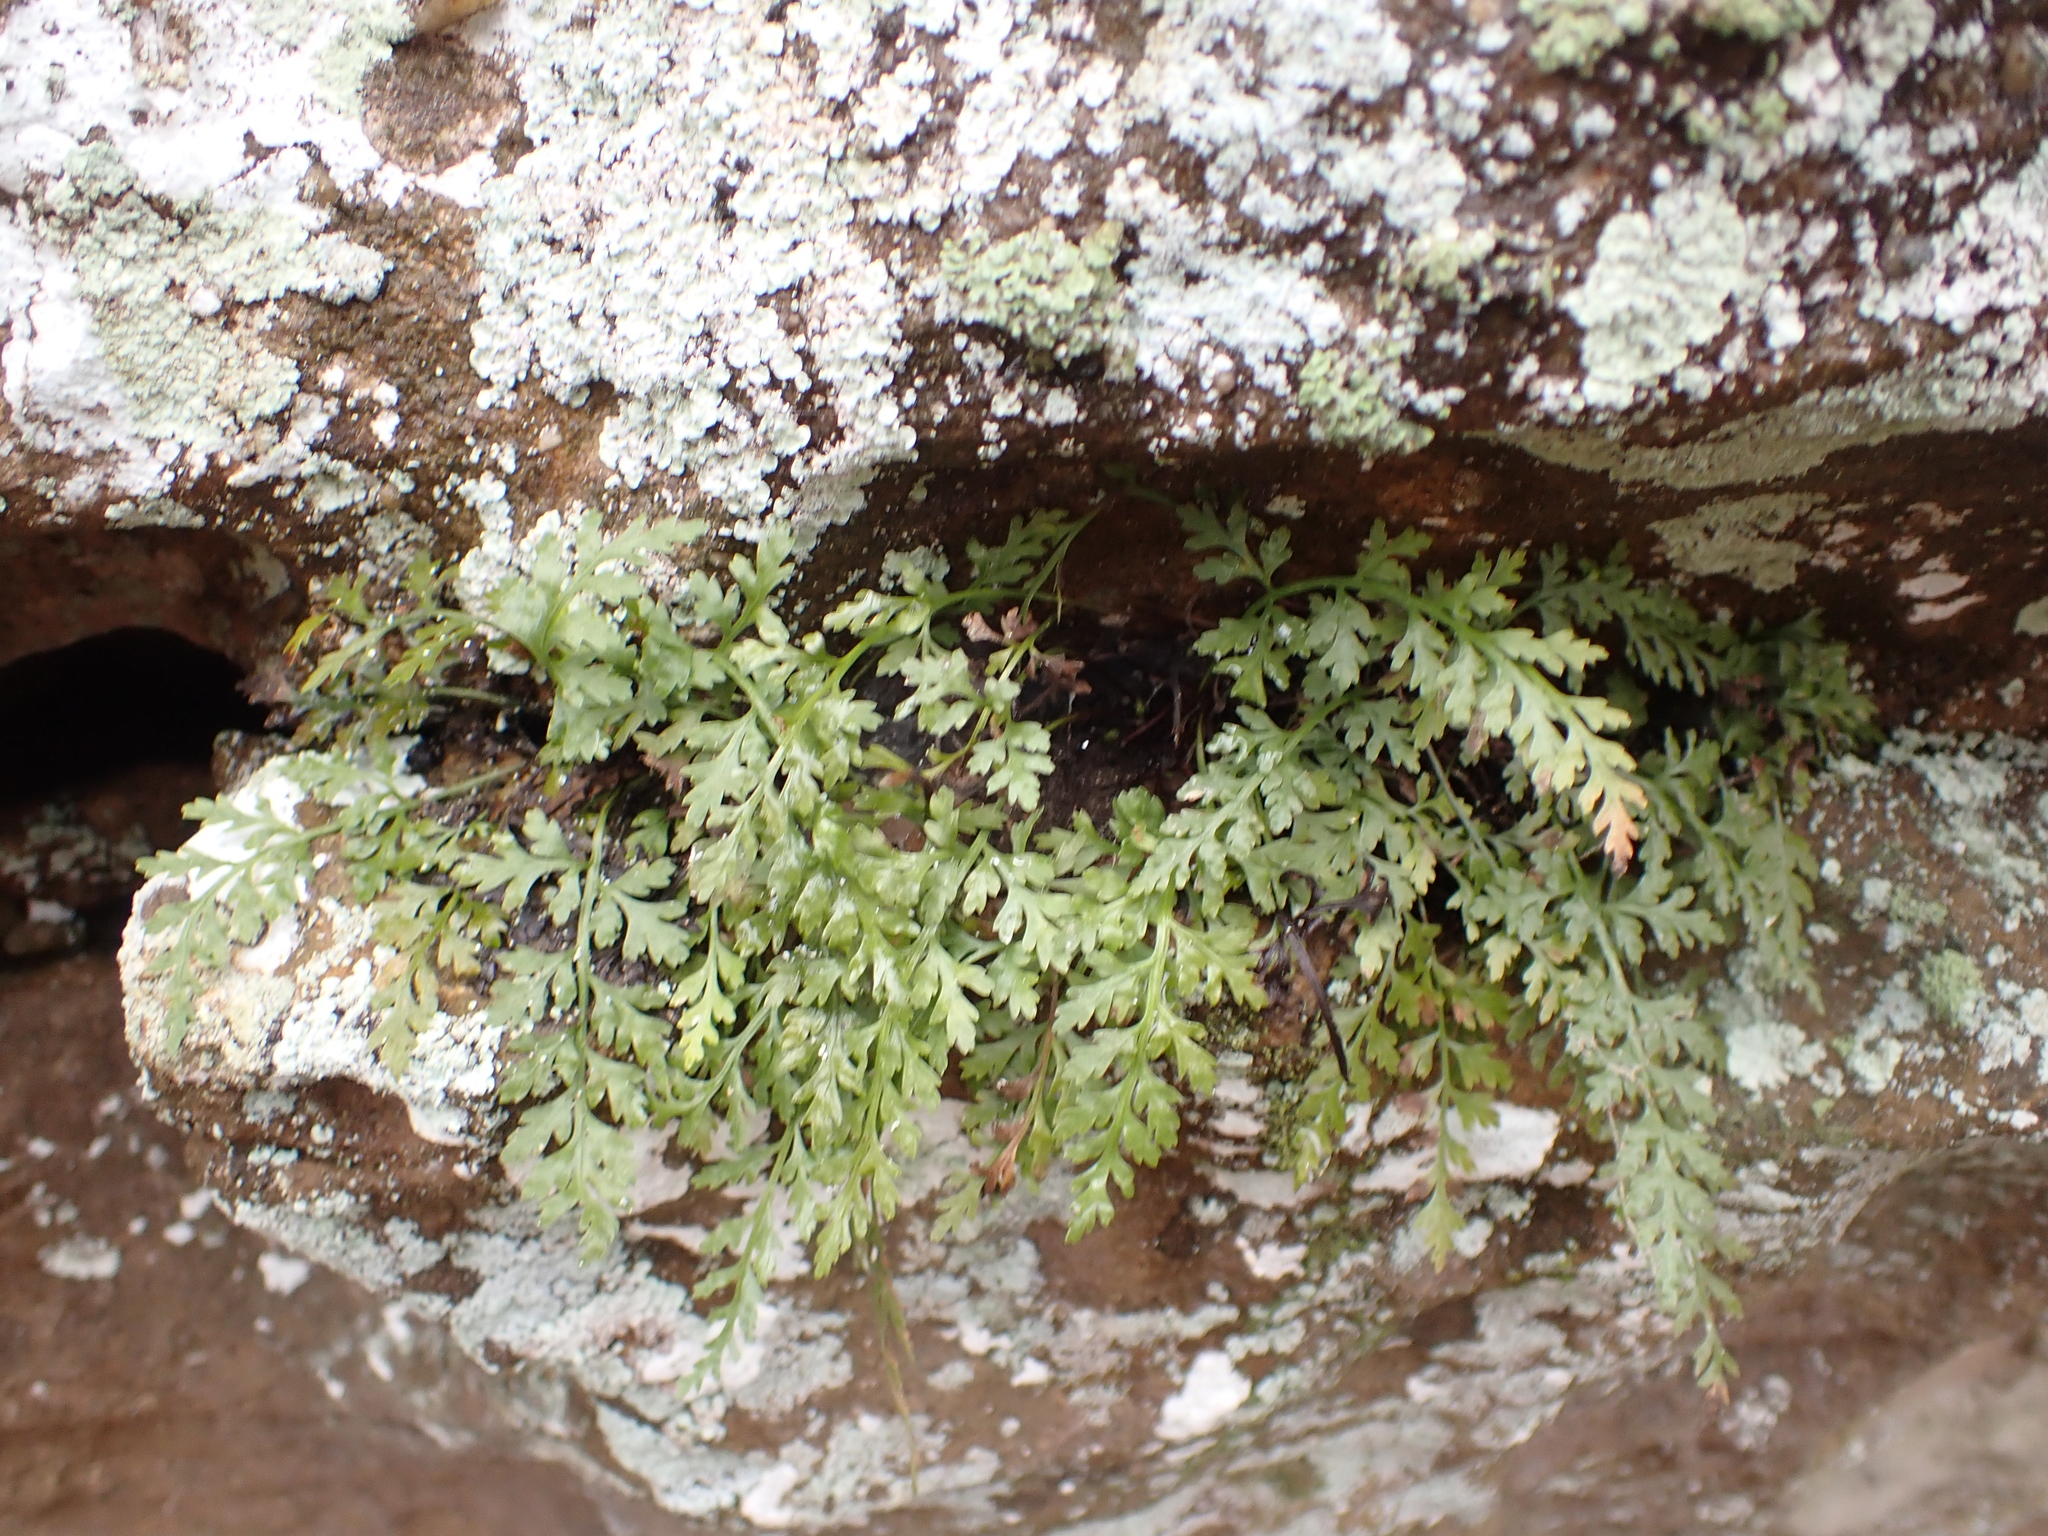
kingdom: Plantae
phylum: Tracheophyta
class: Polypodiopsida
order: Polypodiales
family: Aspleniaceae
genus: Asplenium
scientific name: Asplenium montanum
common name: Mountain spleenwort
